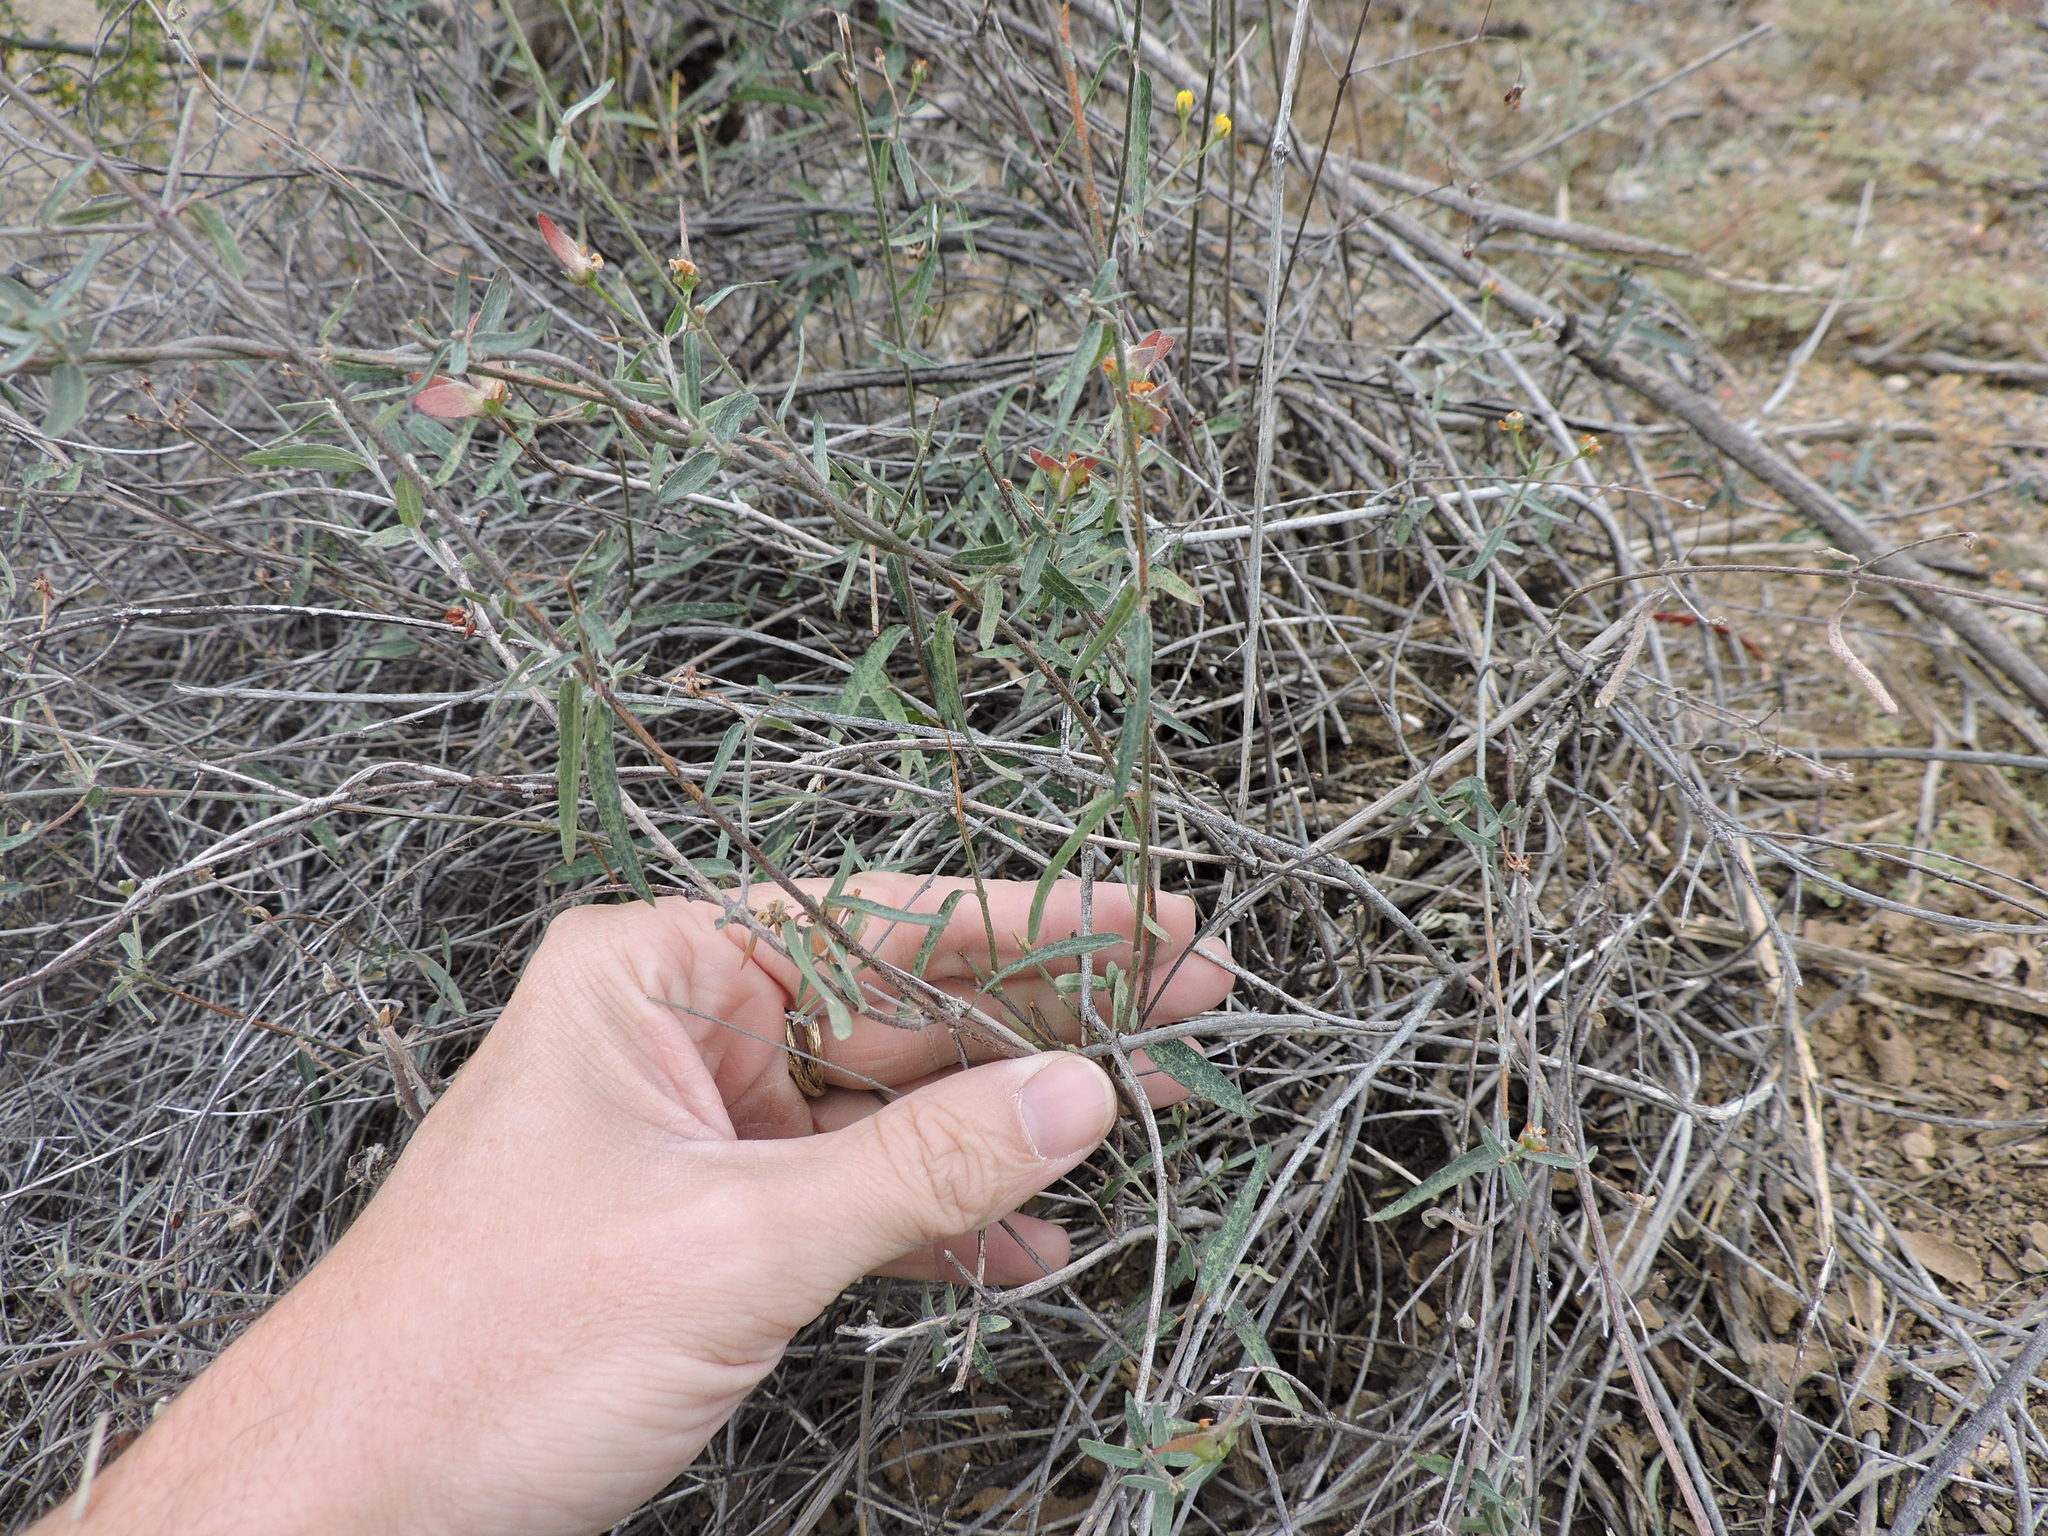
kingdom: Plantae
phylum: Tracheophyta
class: Magnoliopsida
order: Malpighiales
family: Malpighiaceae
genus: Cottsia
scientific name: Cottsia gracilis
